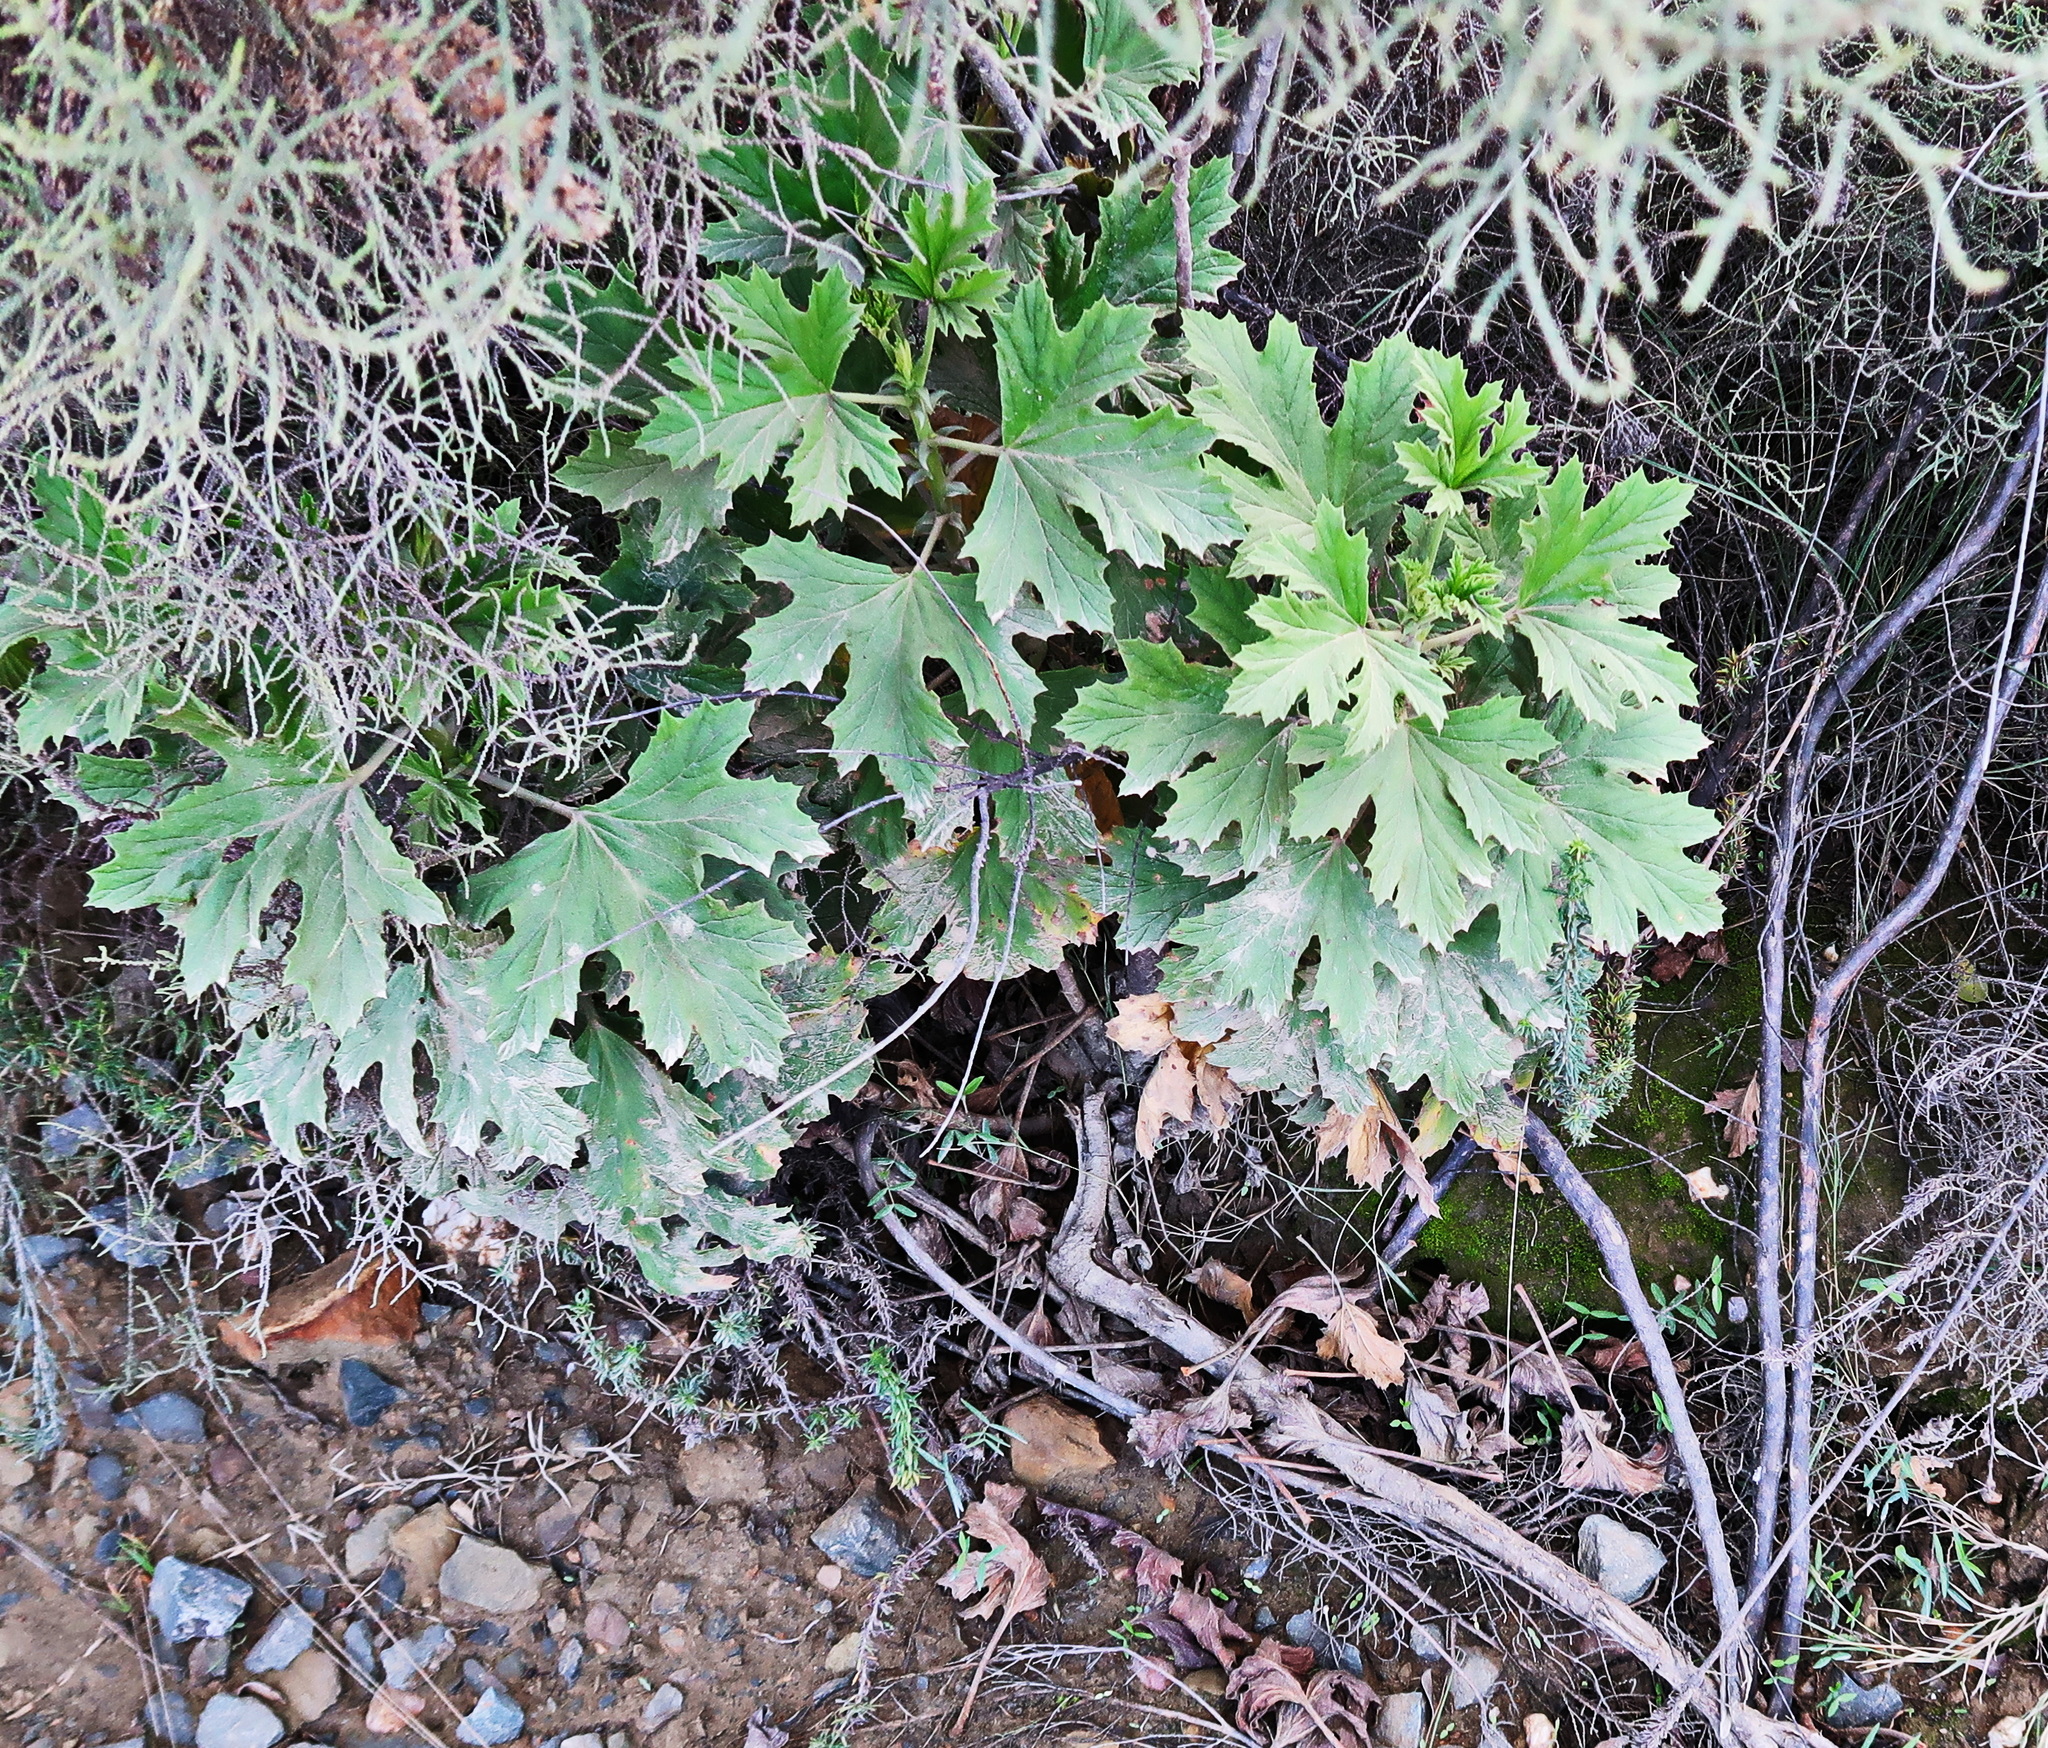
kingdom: Plantae
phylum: Tracheophyta
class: Magnoliopsida
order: Geraniales
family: Geraniaceae
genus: Pelargonium
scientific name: Pelargonium ribifolium
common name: Currant-leaf pelargonium
